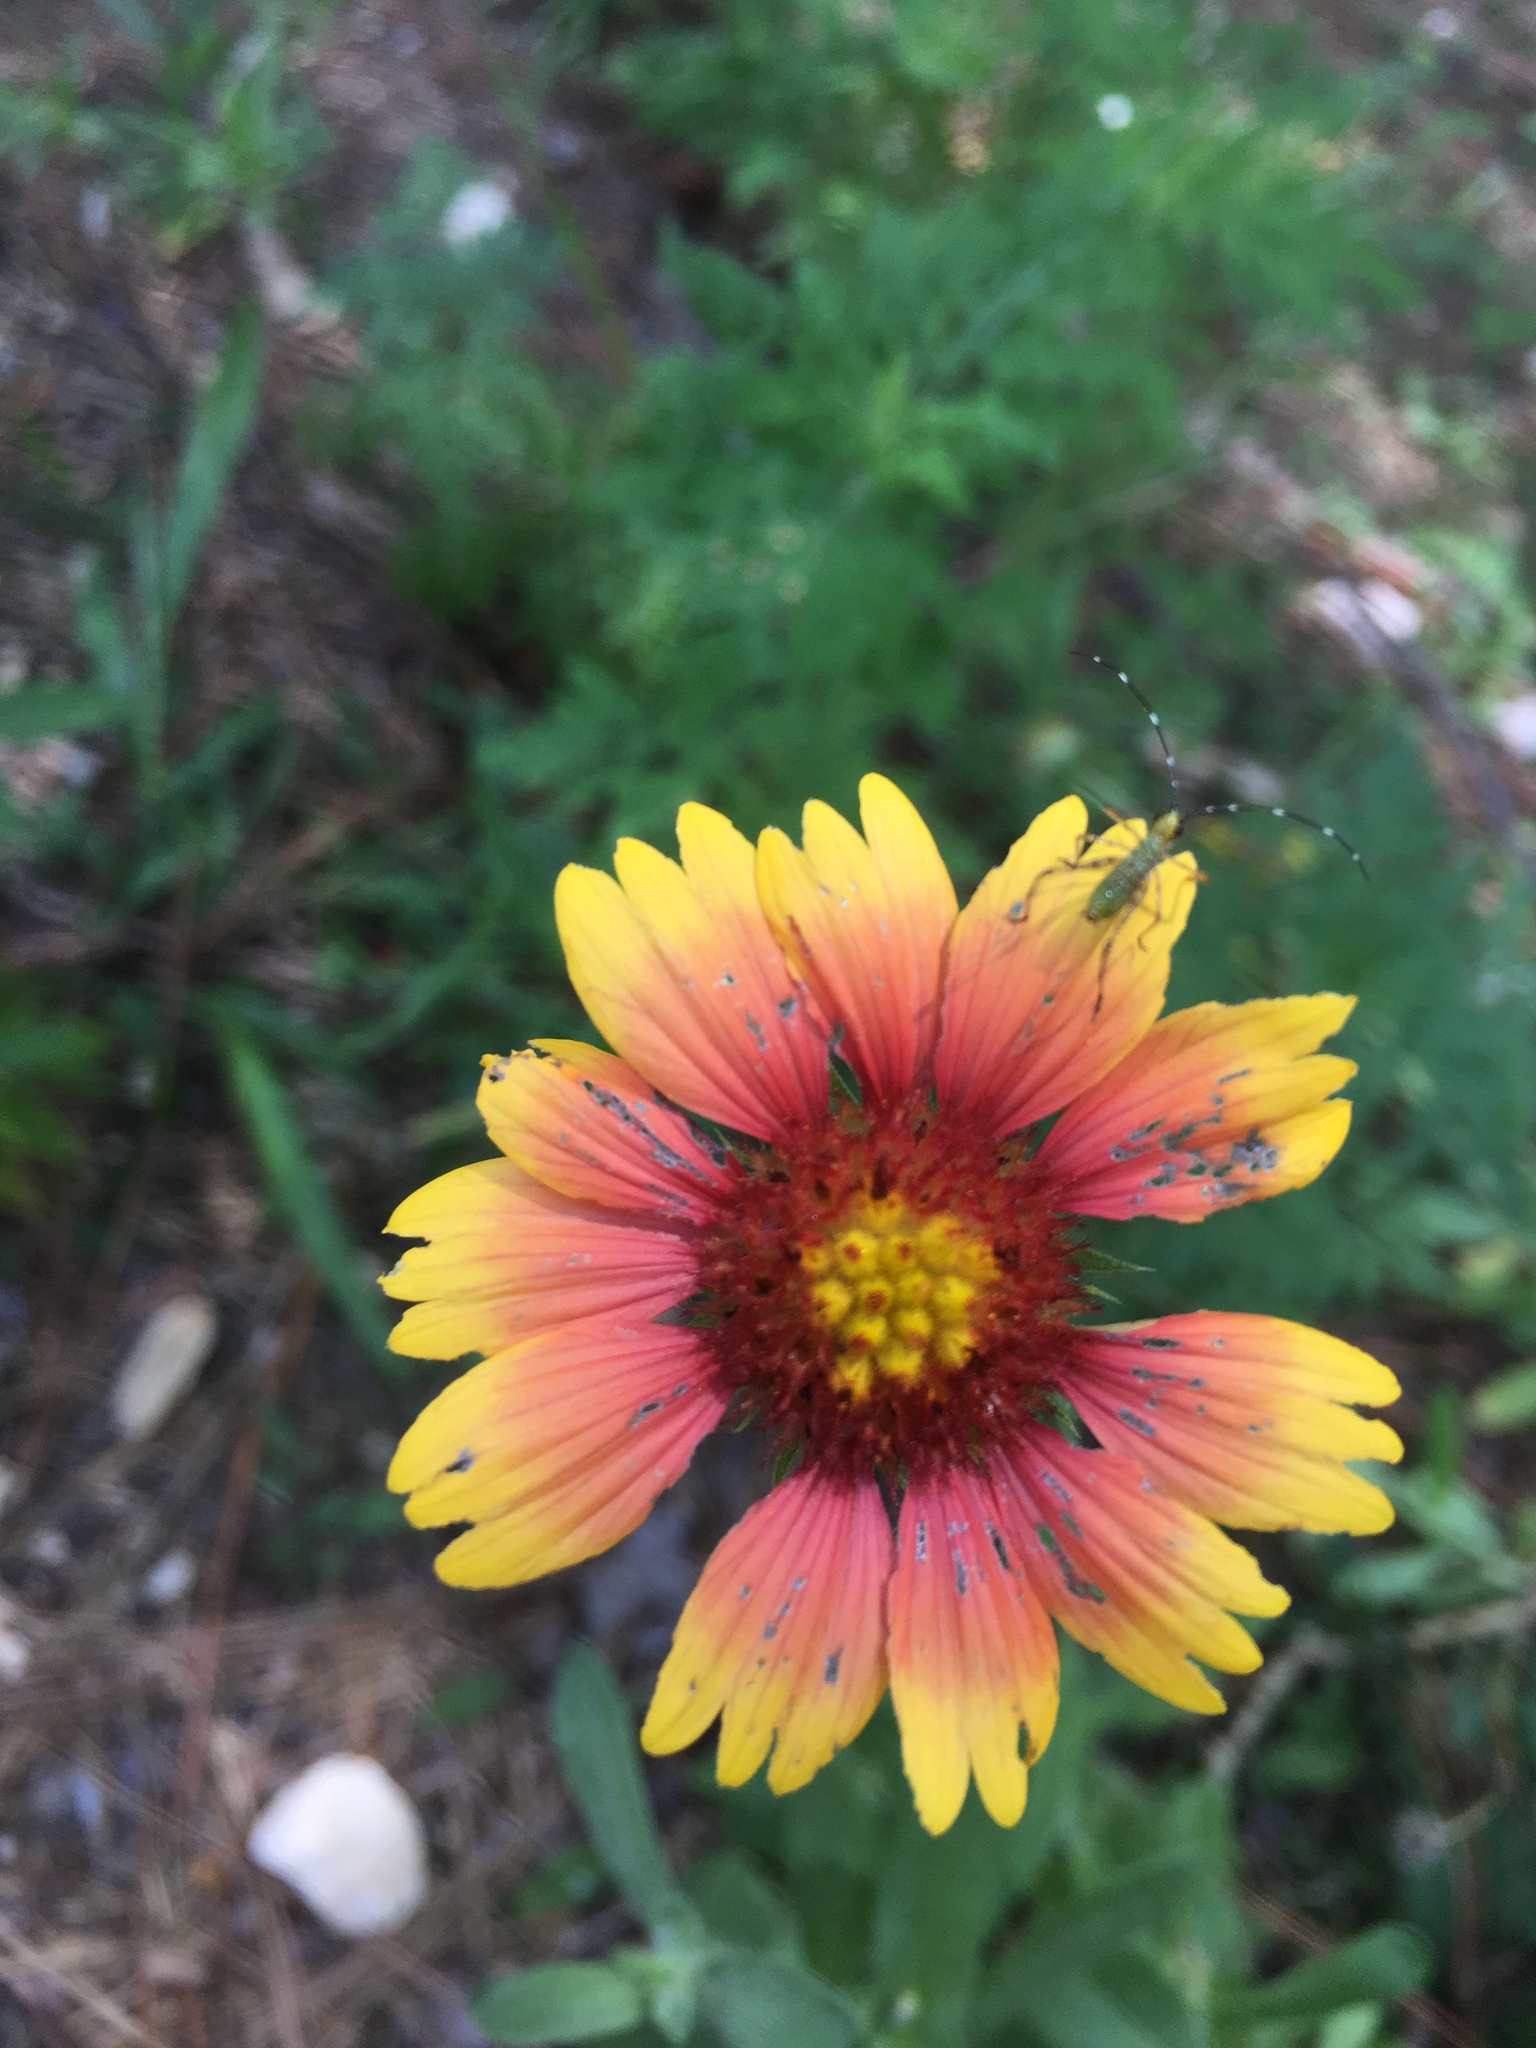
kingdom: Plantae
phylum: Tracheophyta
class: Magnoliopsida
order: Asterales
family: Asteraceae
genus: Gaillardia
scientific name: Gaillardia pulchella
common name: Firewheel
